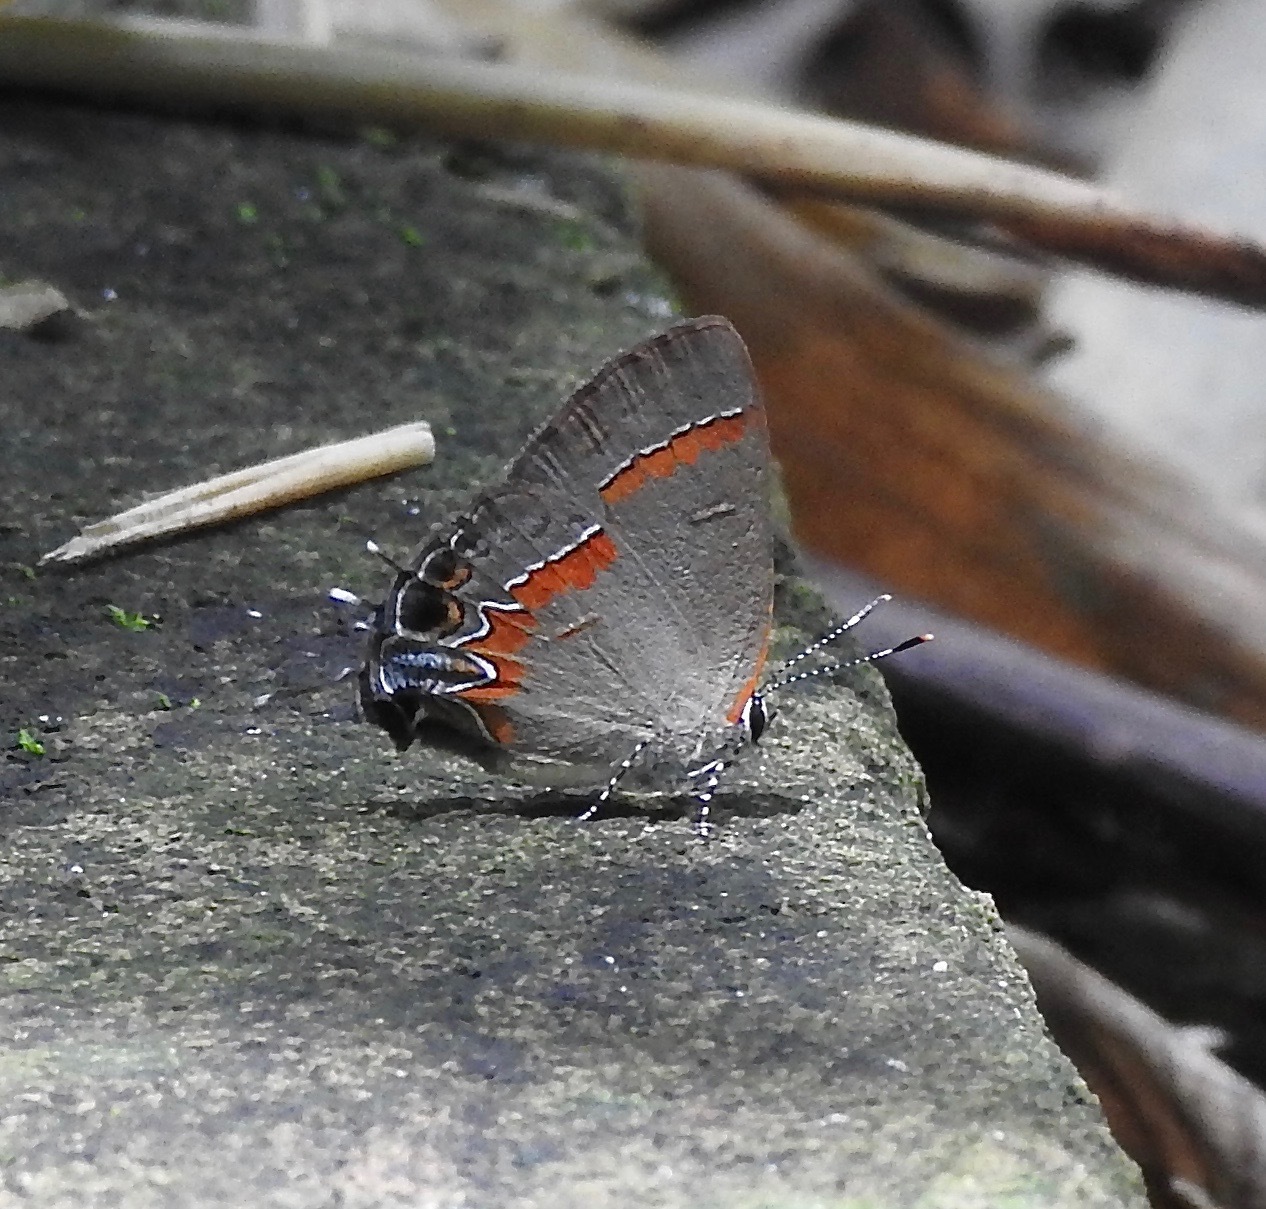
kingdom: Animalia
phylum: Arthropoda
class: Insecta
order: Lepidoptera
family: Lycaenidae
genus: Calycopis
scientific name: Calycopis cecrops
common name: Red-banded hairstreak
